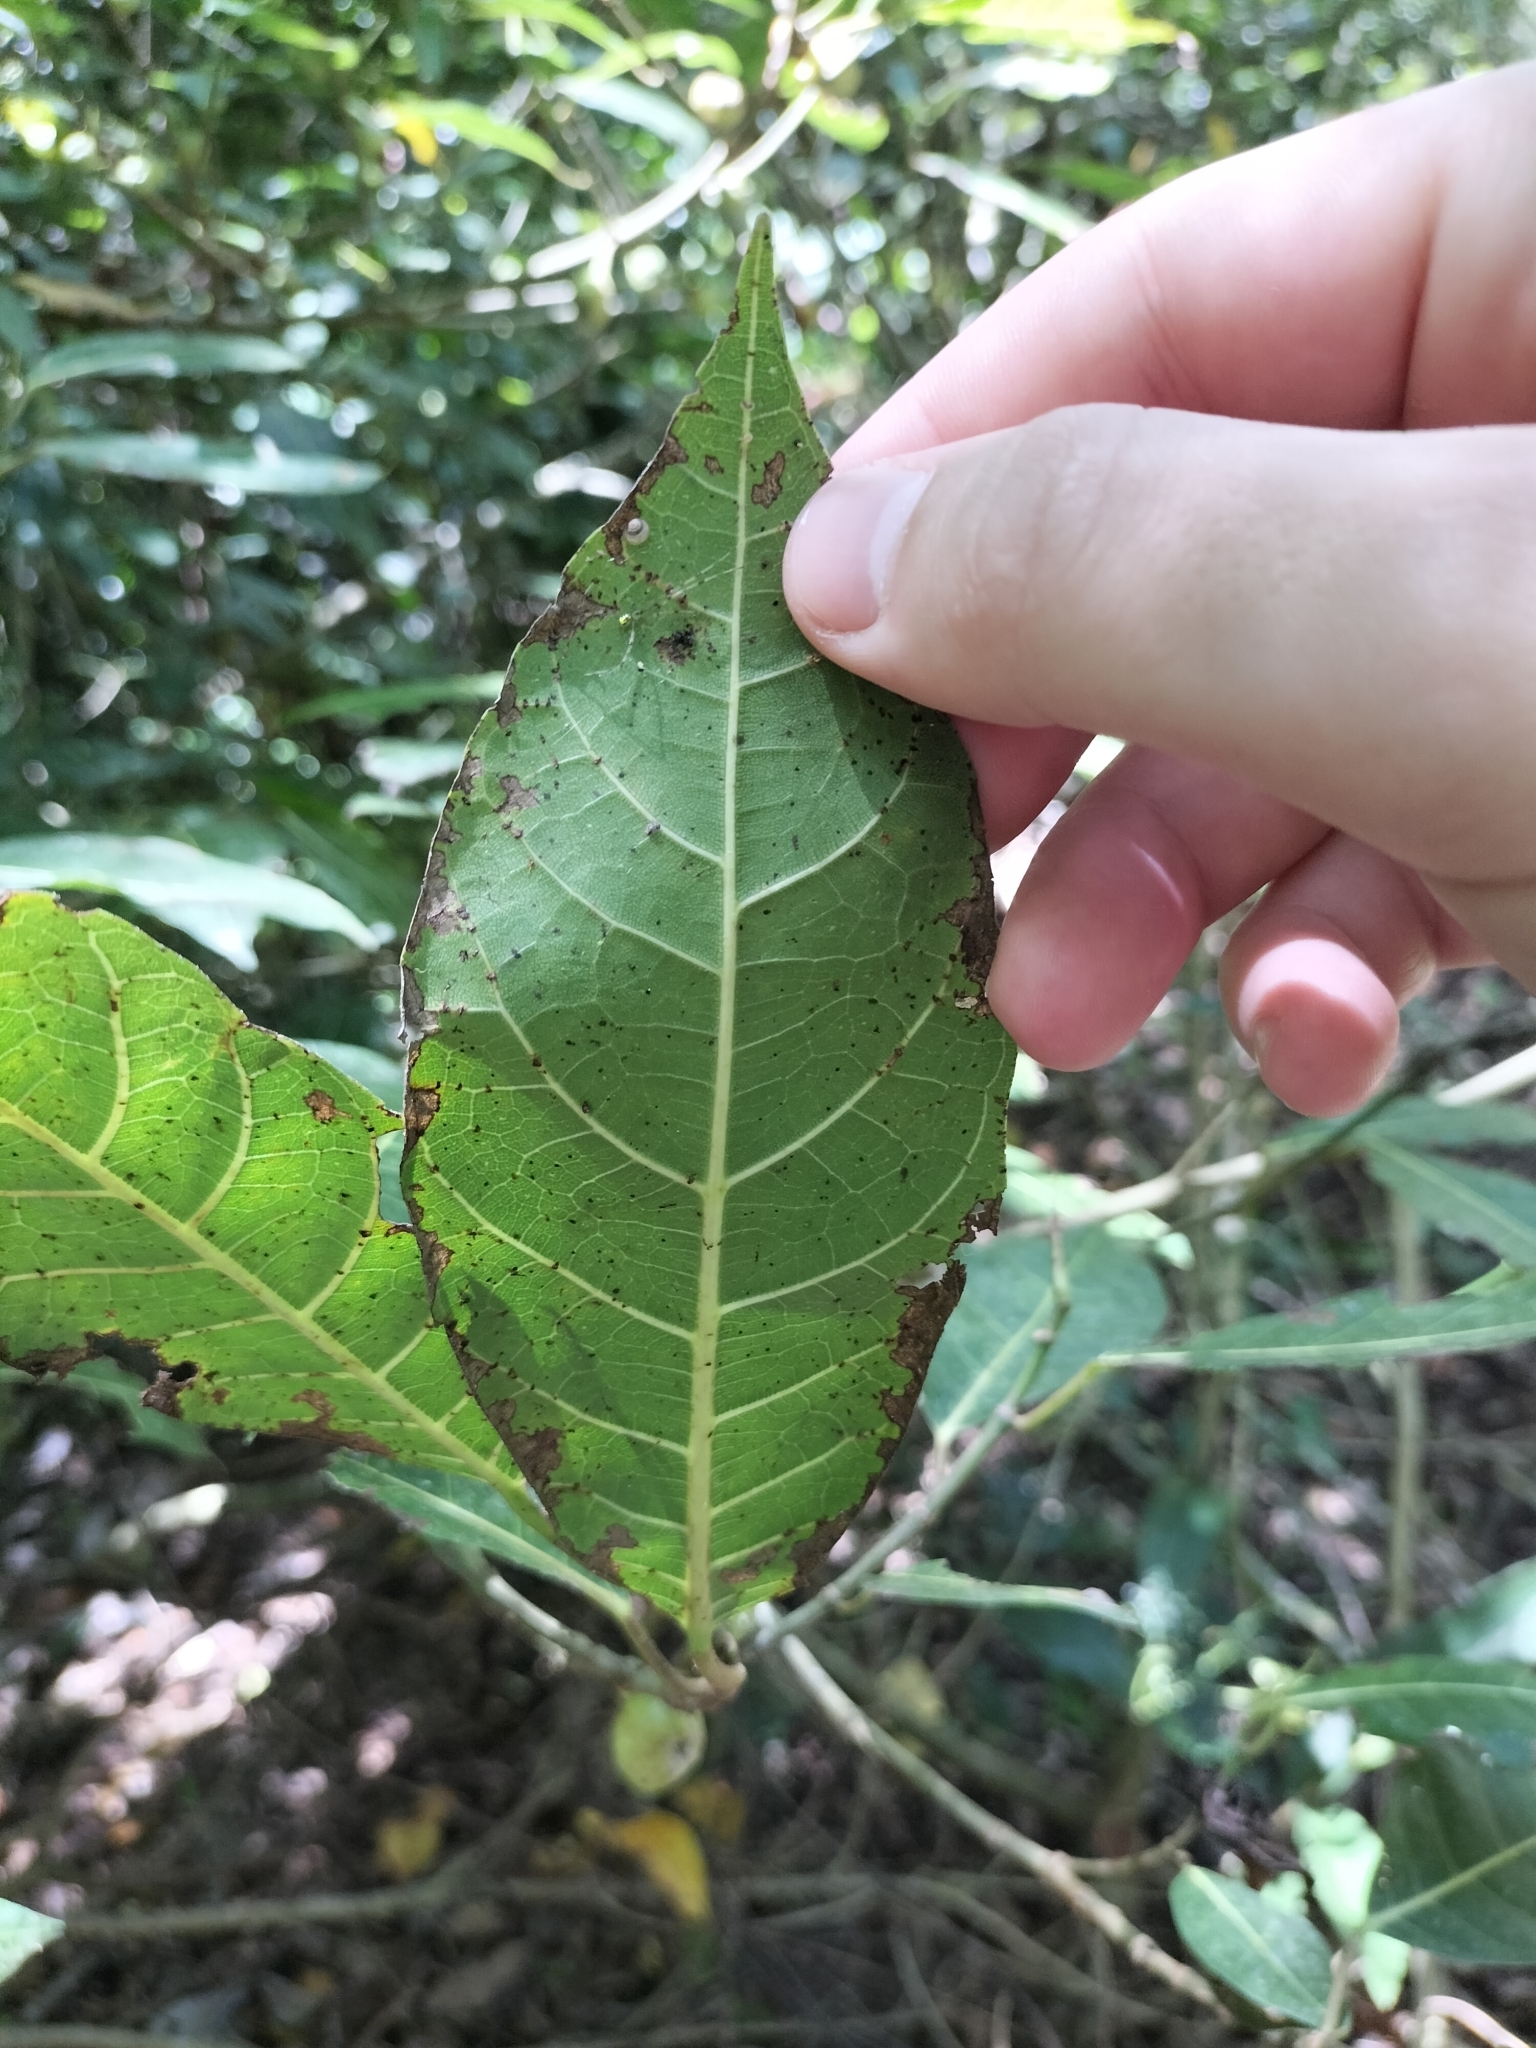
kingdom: Plantae
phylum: Tracheophyta
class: Magnoliopsida
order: Rosales
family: Moraceae
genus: Ficus
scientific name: Ficus septica
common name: Septic fig
